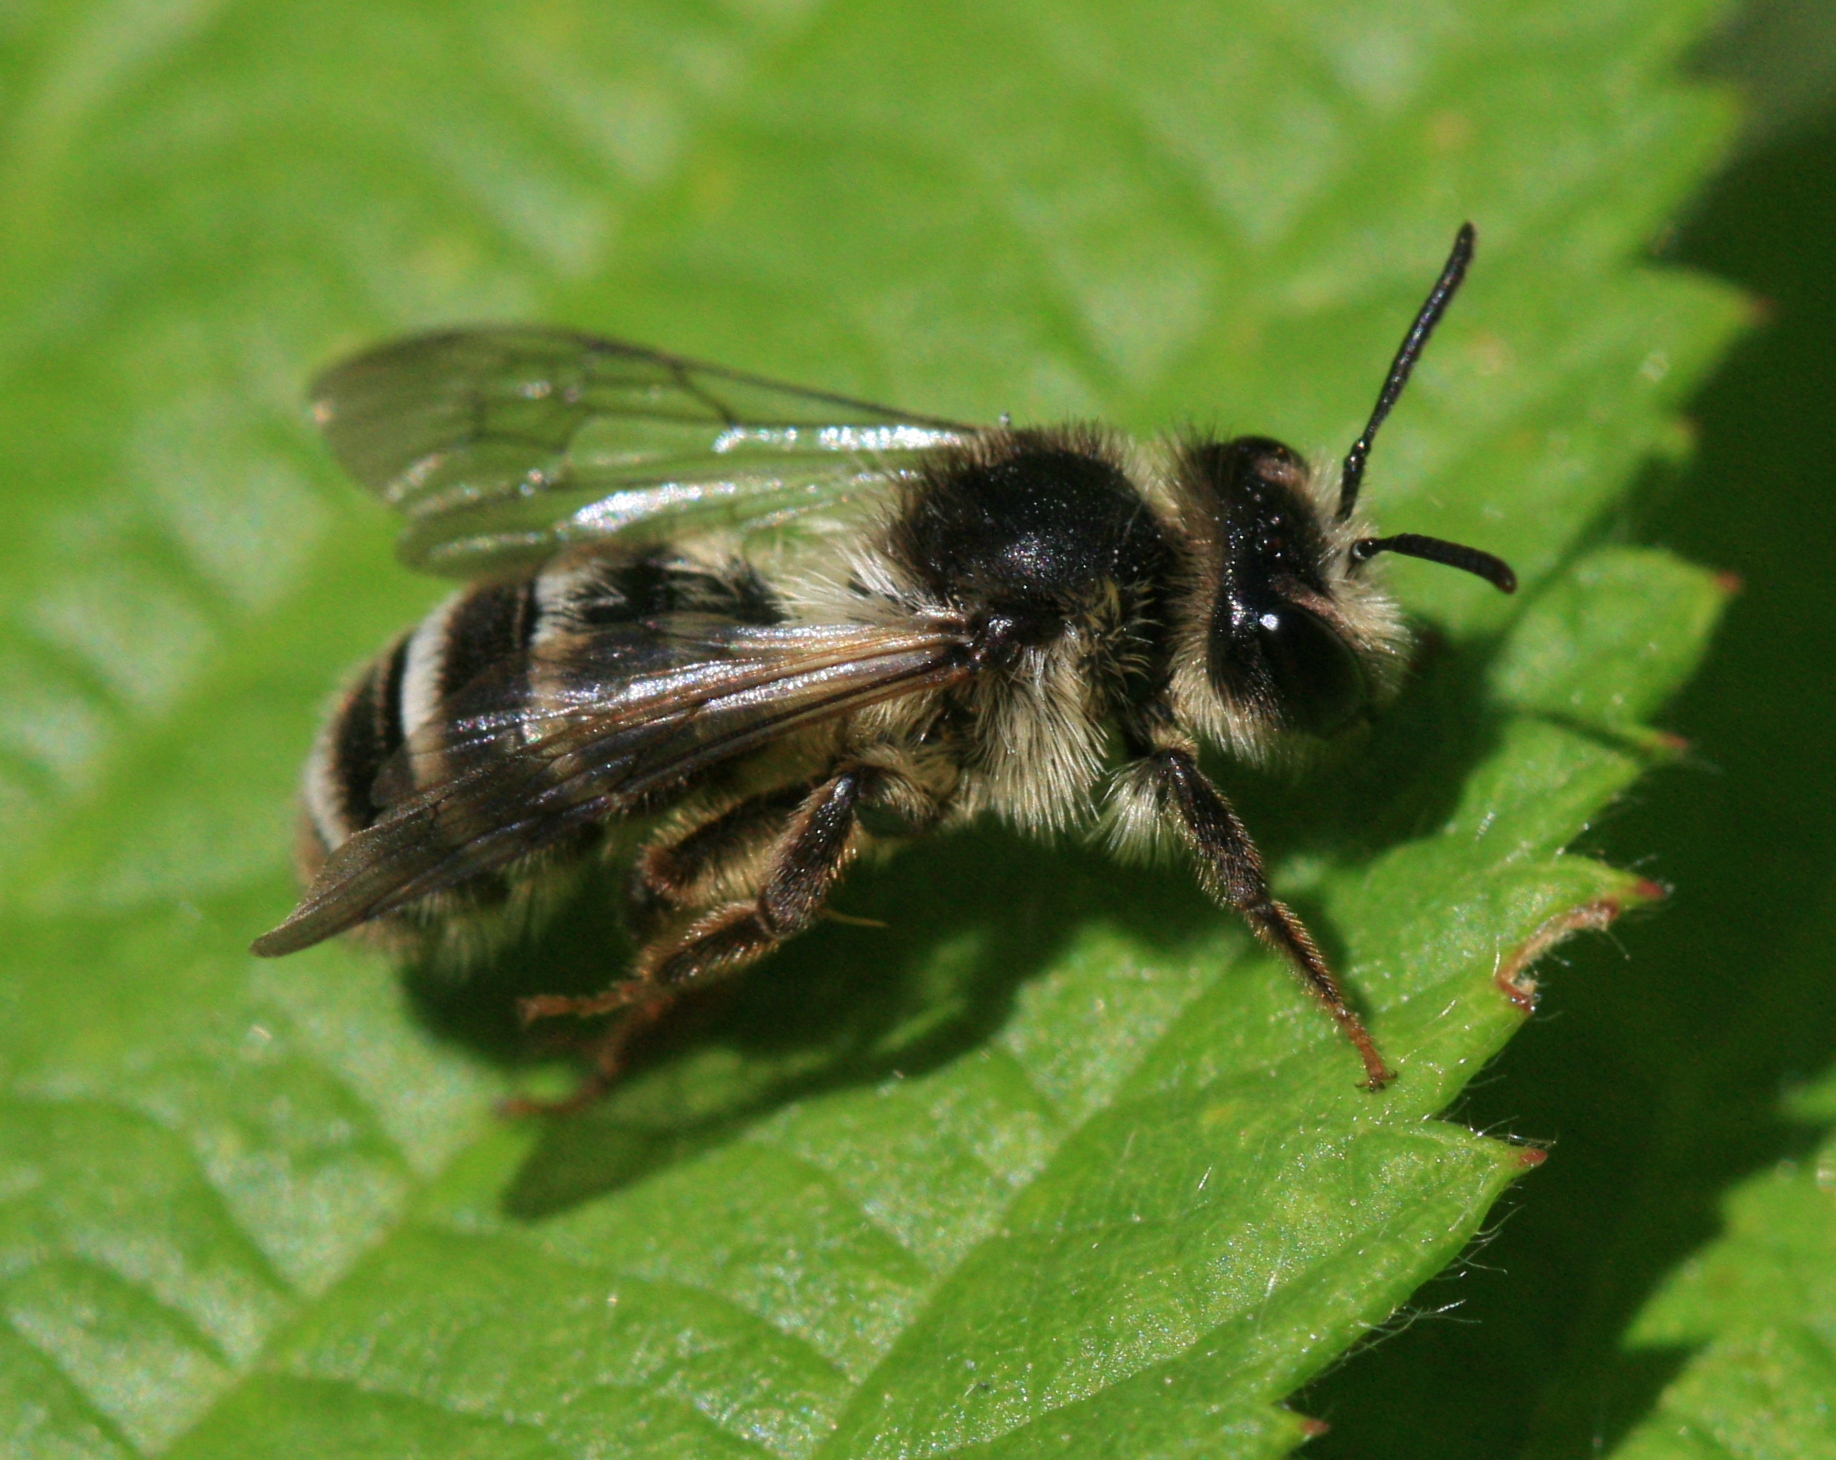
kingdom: Animalia
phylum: Arthropoda
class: Insecta
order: Hymenoptera
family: Andrenidae
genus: Andrena
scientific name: Andrena denticulata
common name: Grey-banded mining bee
